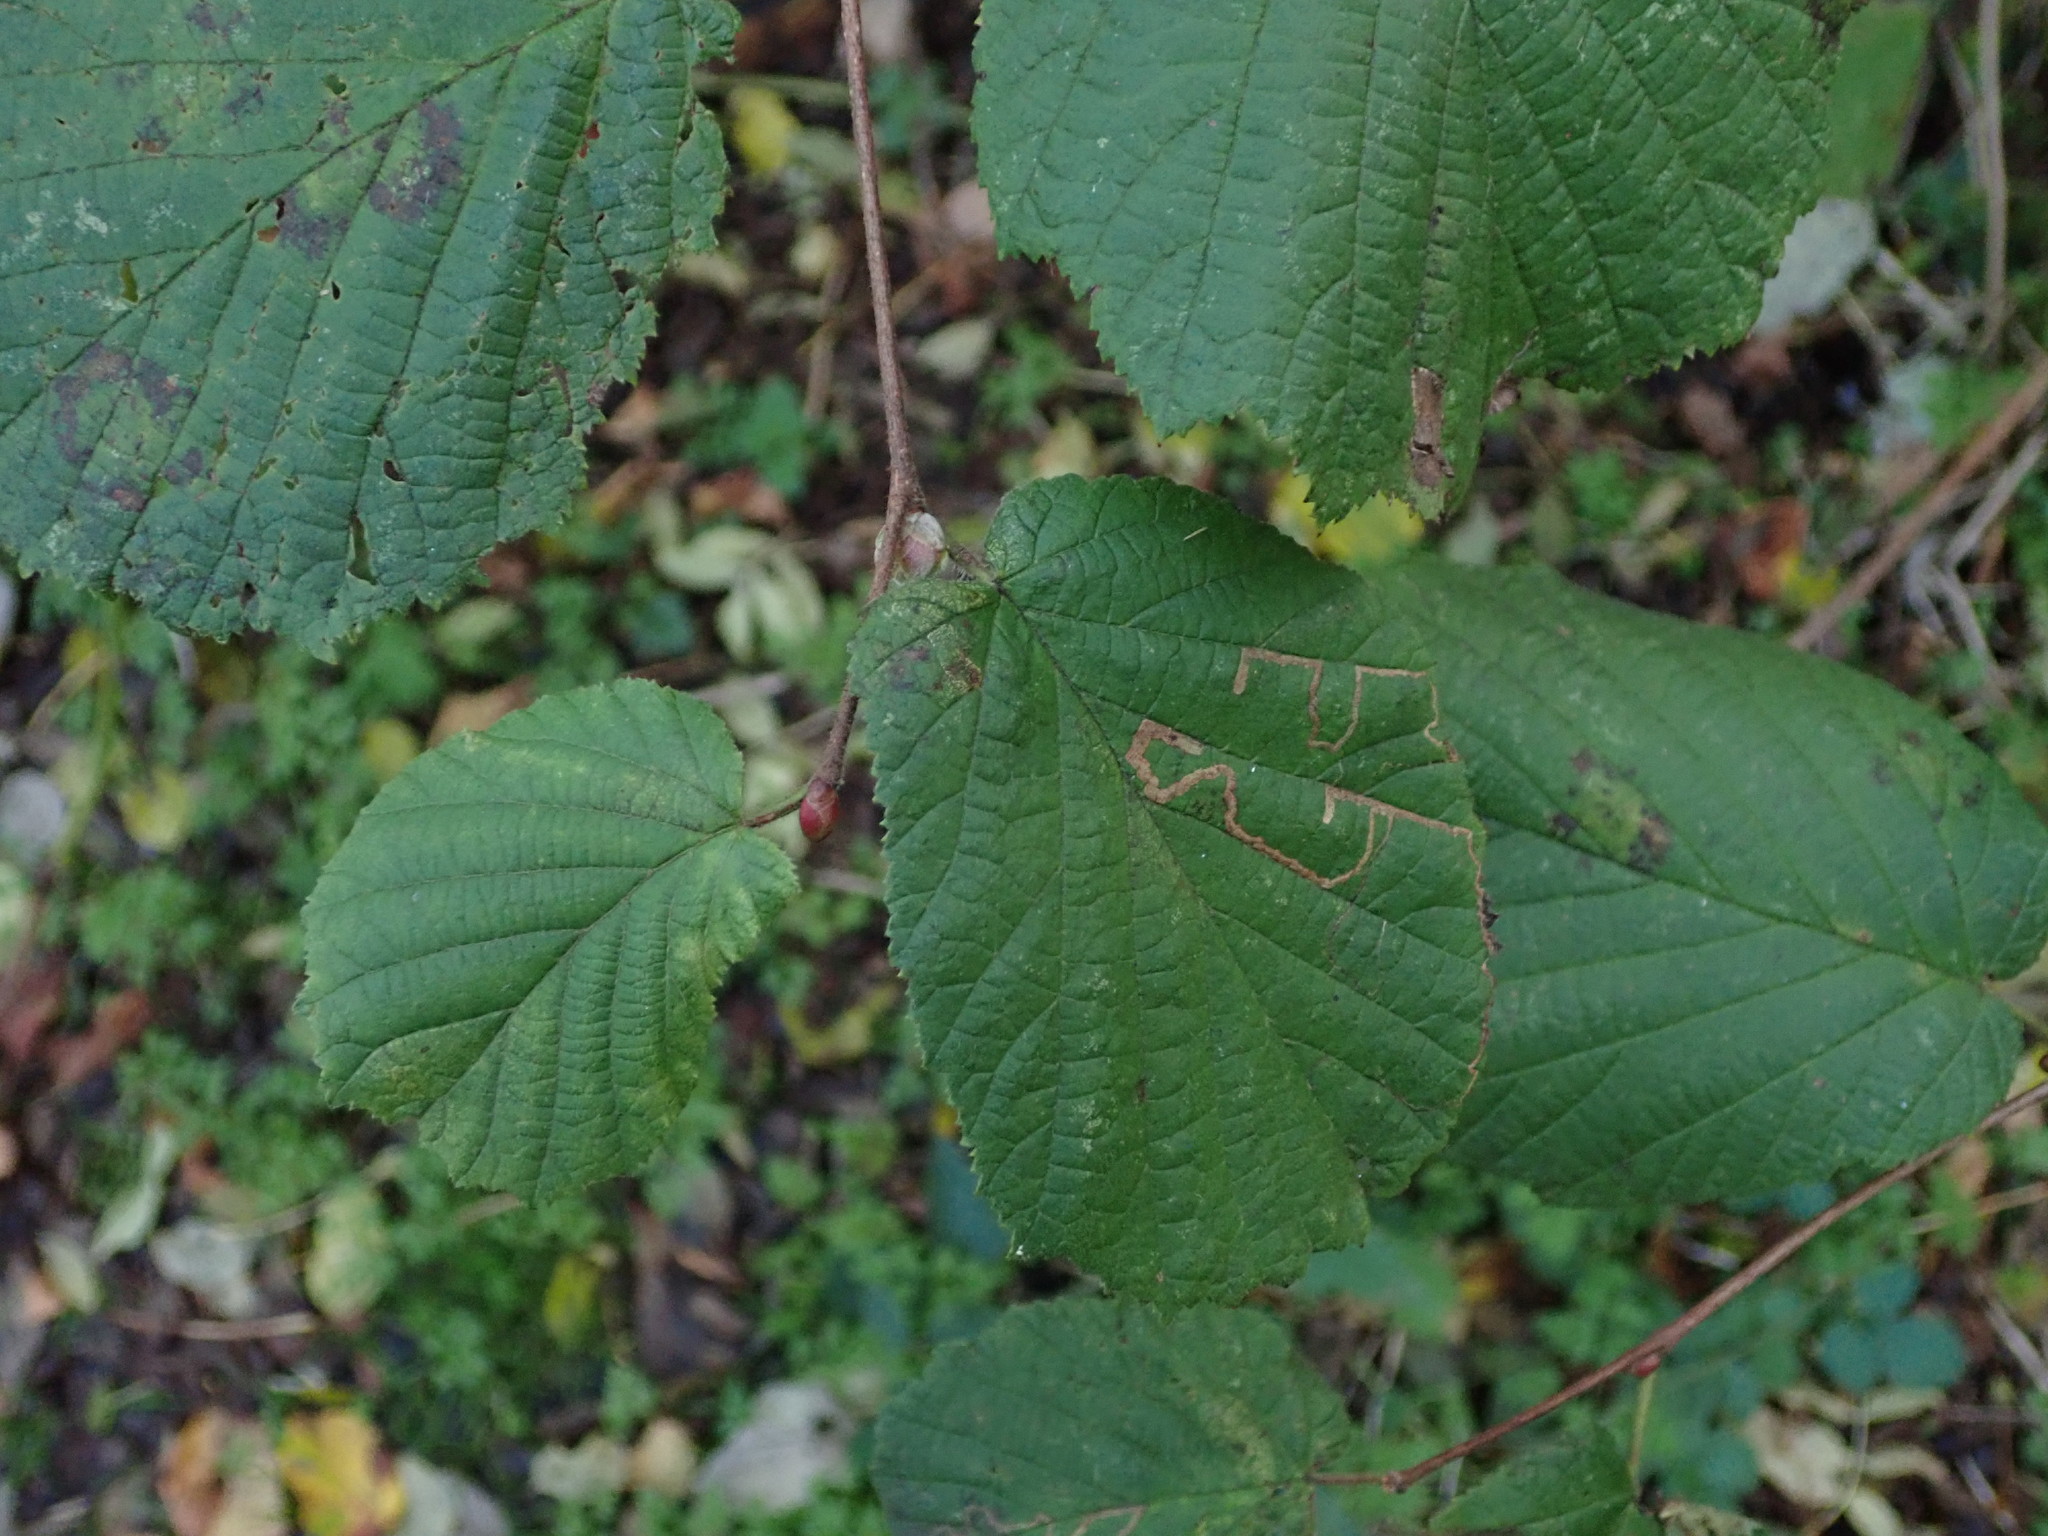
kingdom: Plantae
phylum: Tracheophyta
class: Magnoliopsida
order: Fagales
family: Betulaceae
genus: Corylus
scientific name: Corylus avellana
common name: European hazel
